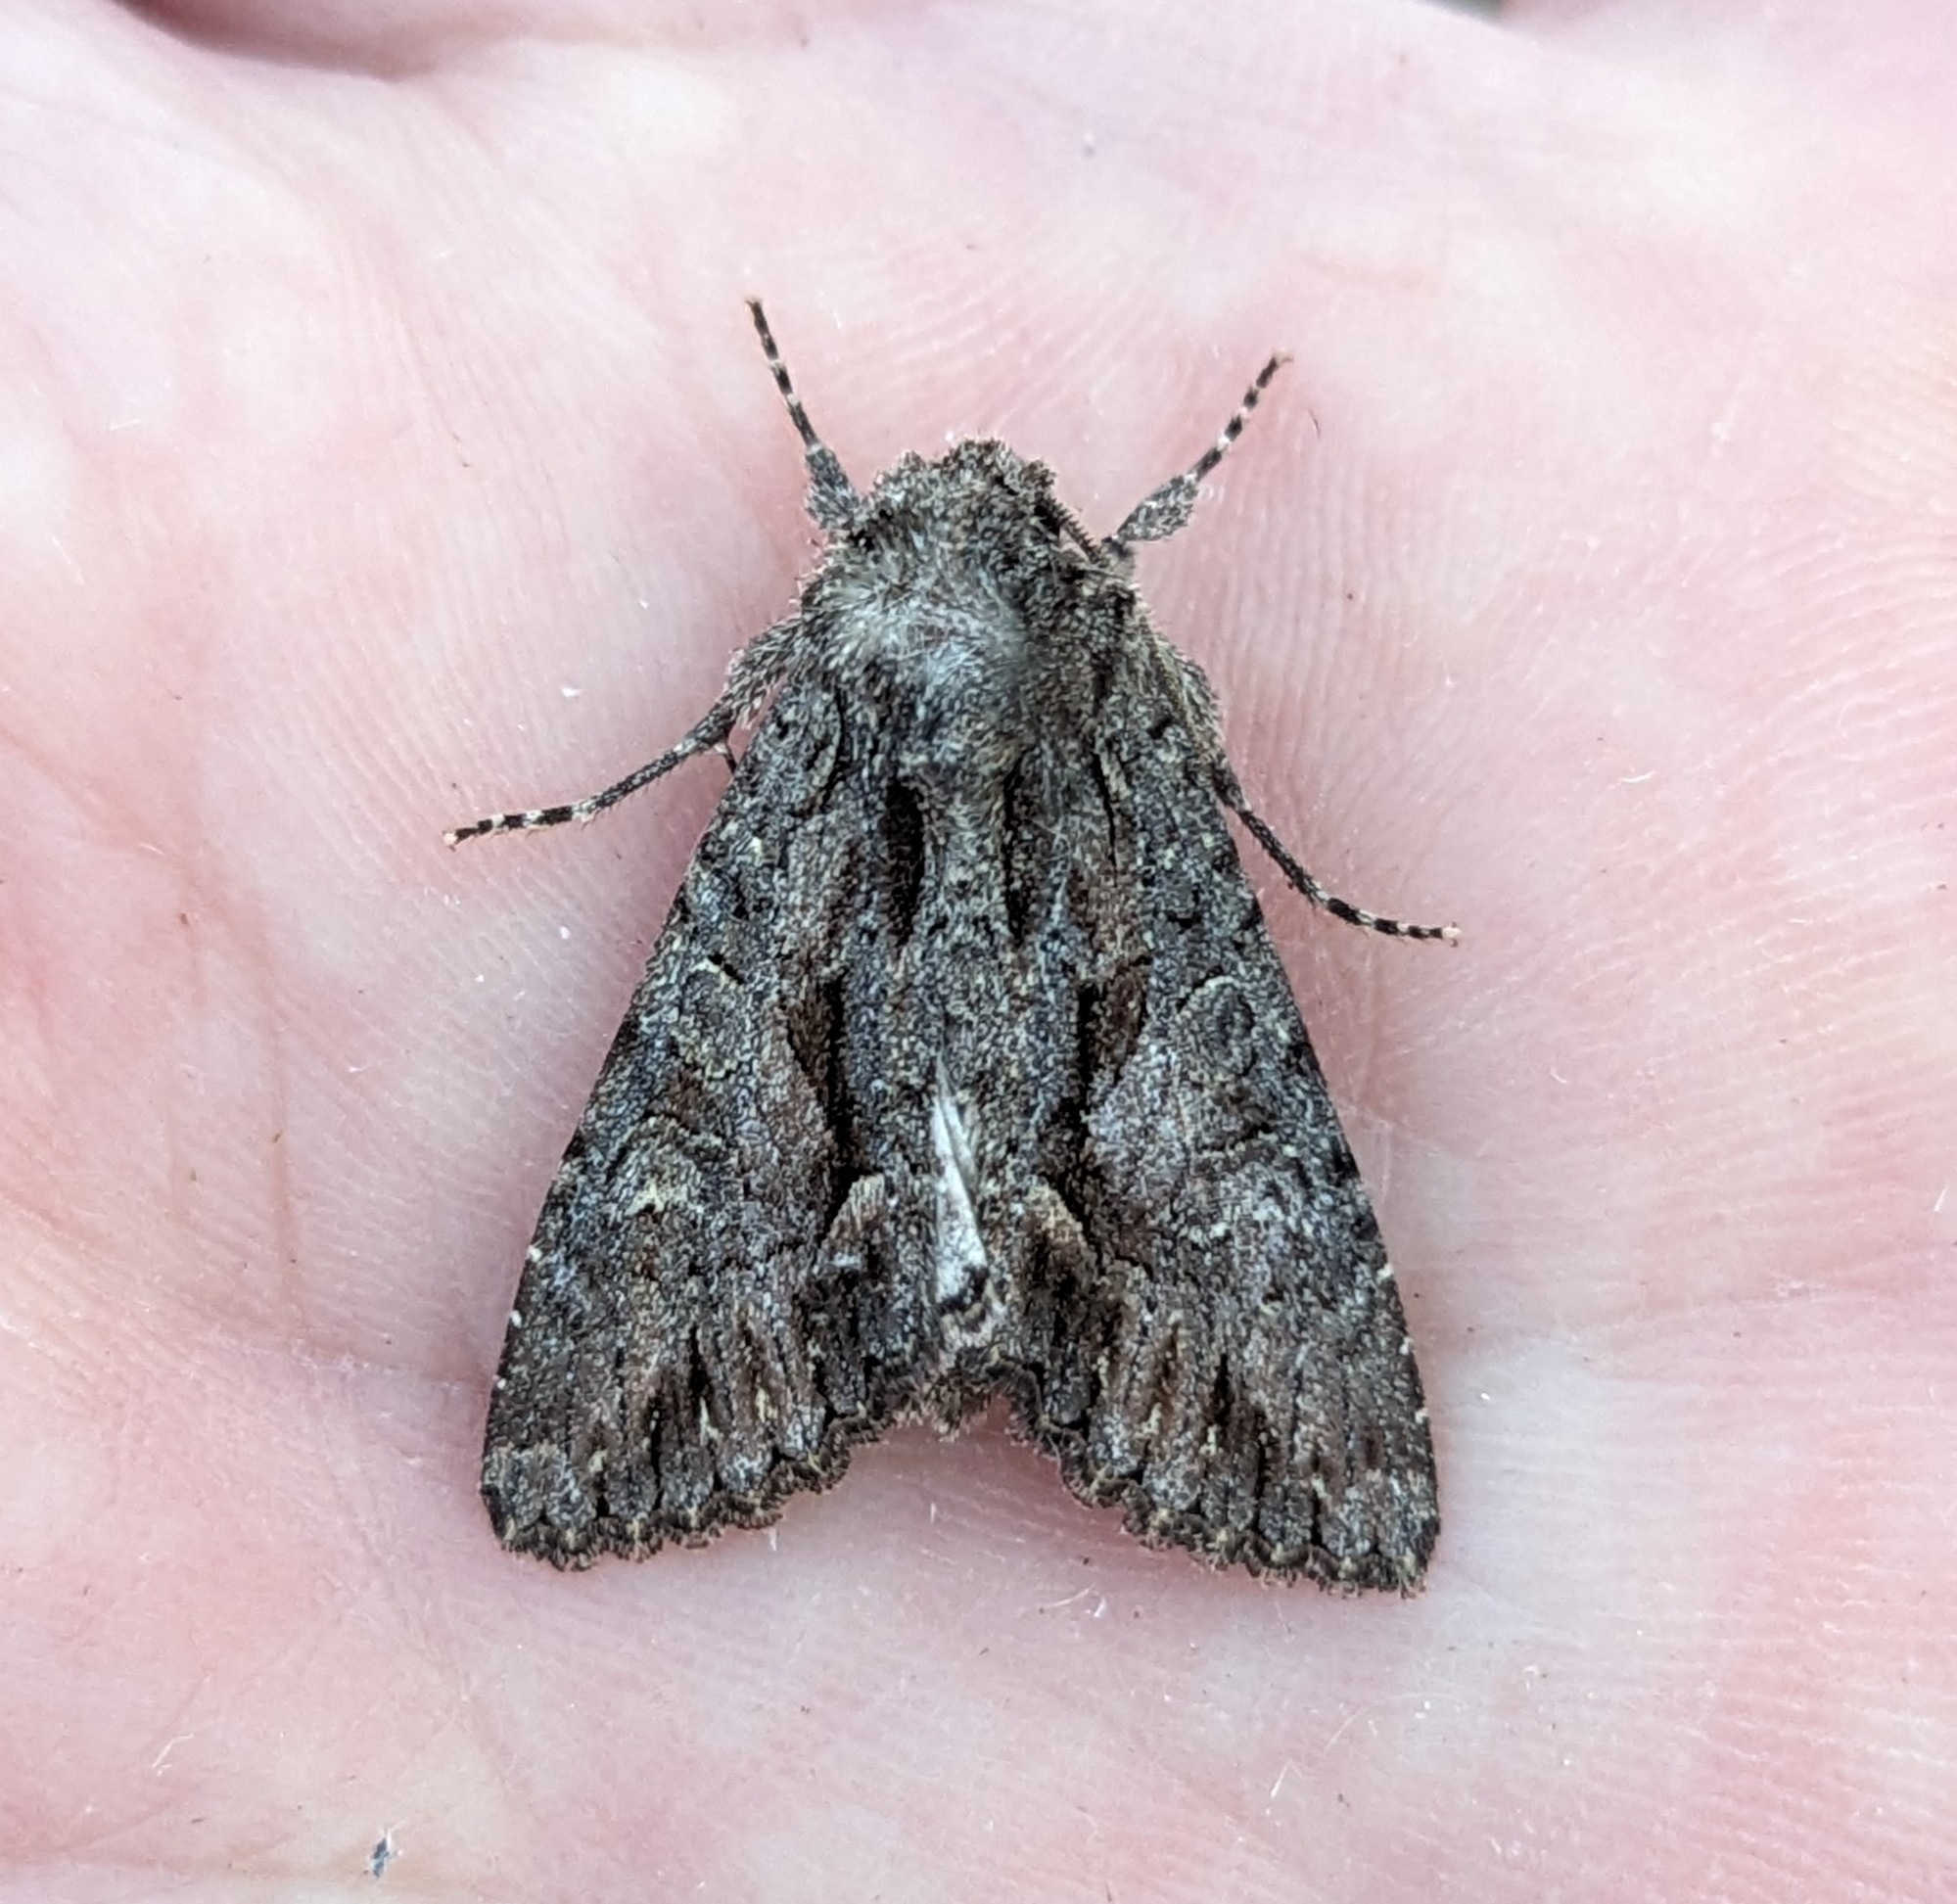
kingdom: Animalia
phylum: Arthropoda
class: Insecta
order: Lepidoptera
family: Noctuidae
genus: Fishia
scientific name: Fishia discors
